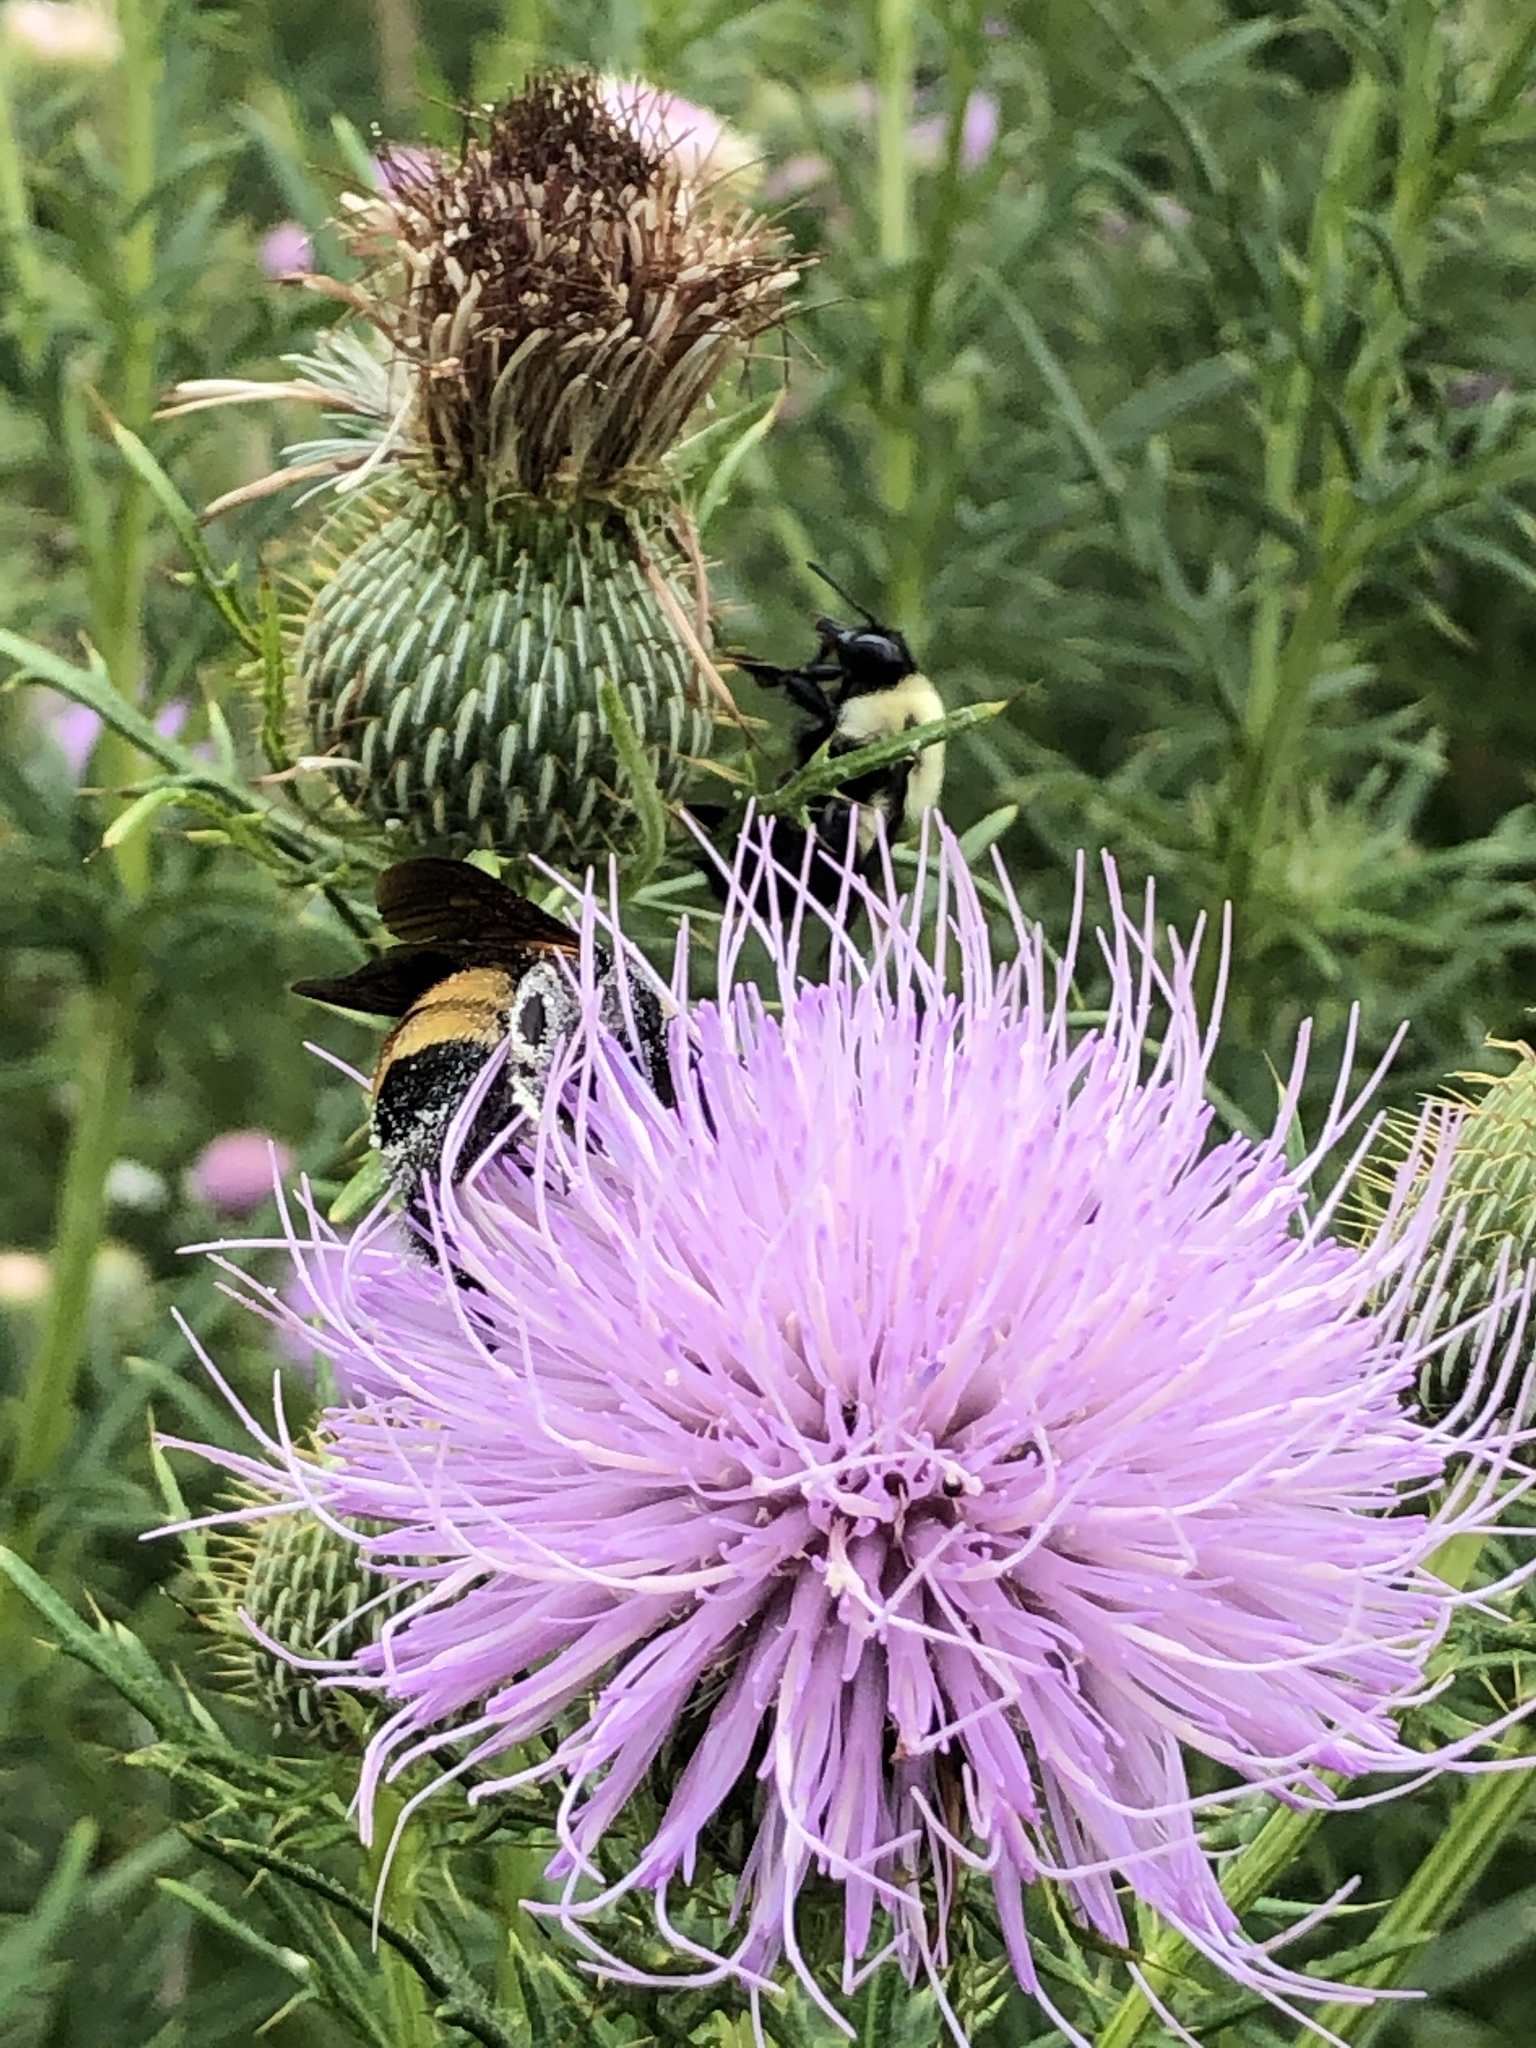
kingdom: Animalia
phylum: Arthropoda
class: Insecta
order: Hymenoptera
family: Apidae
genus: Bombus
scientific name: Bombus auricomus
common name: Black and gold bumble bee
